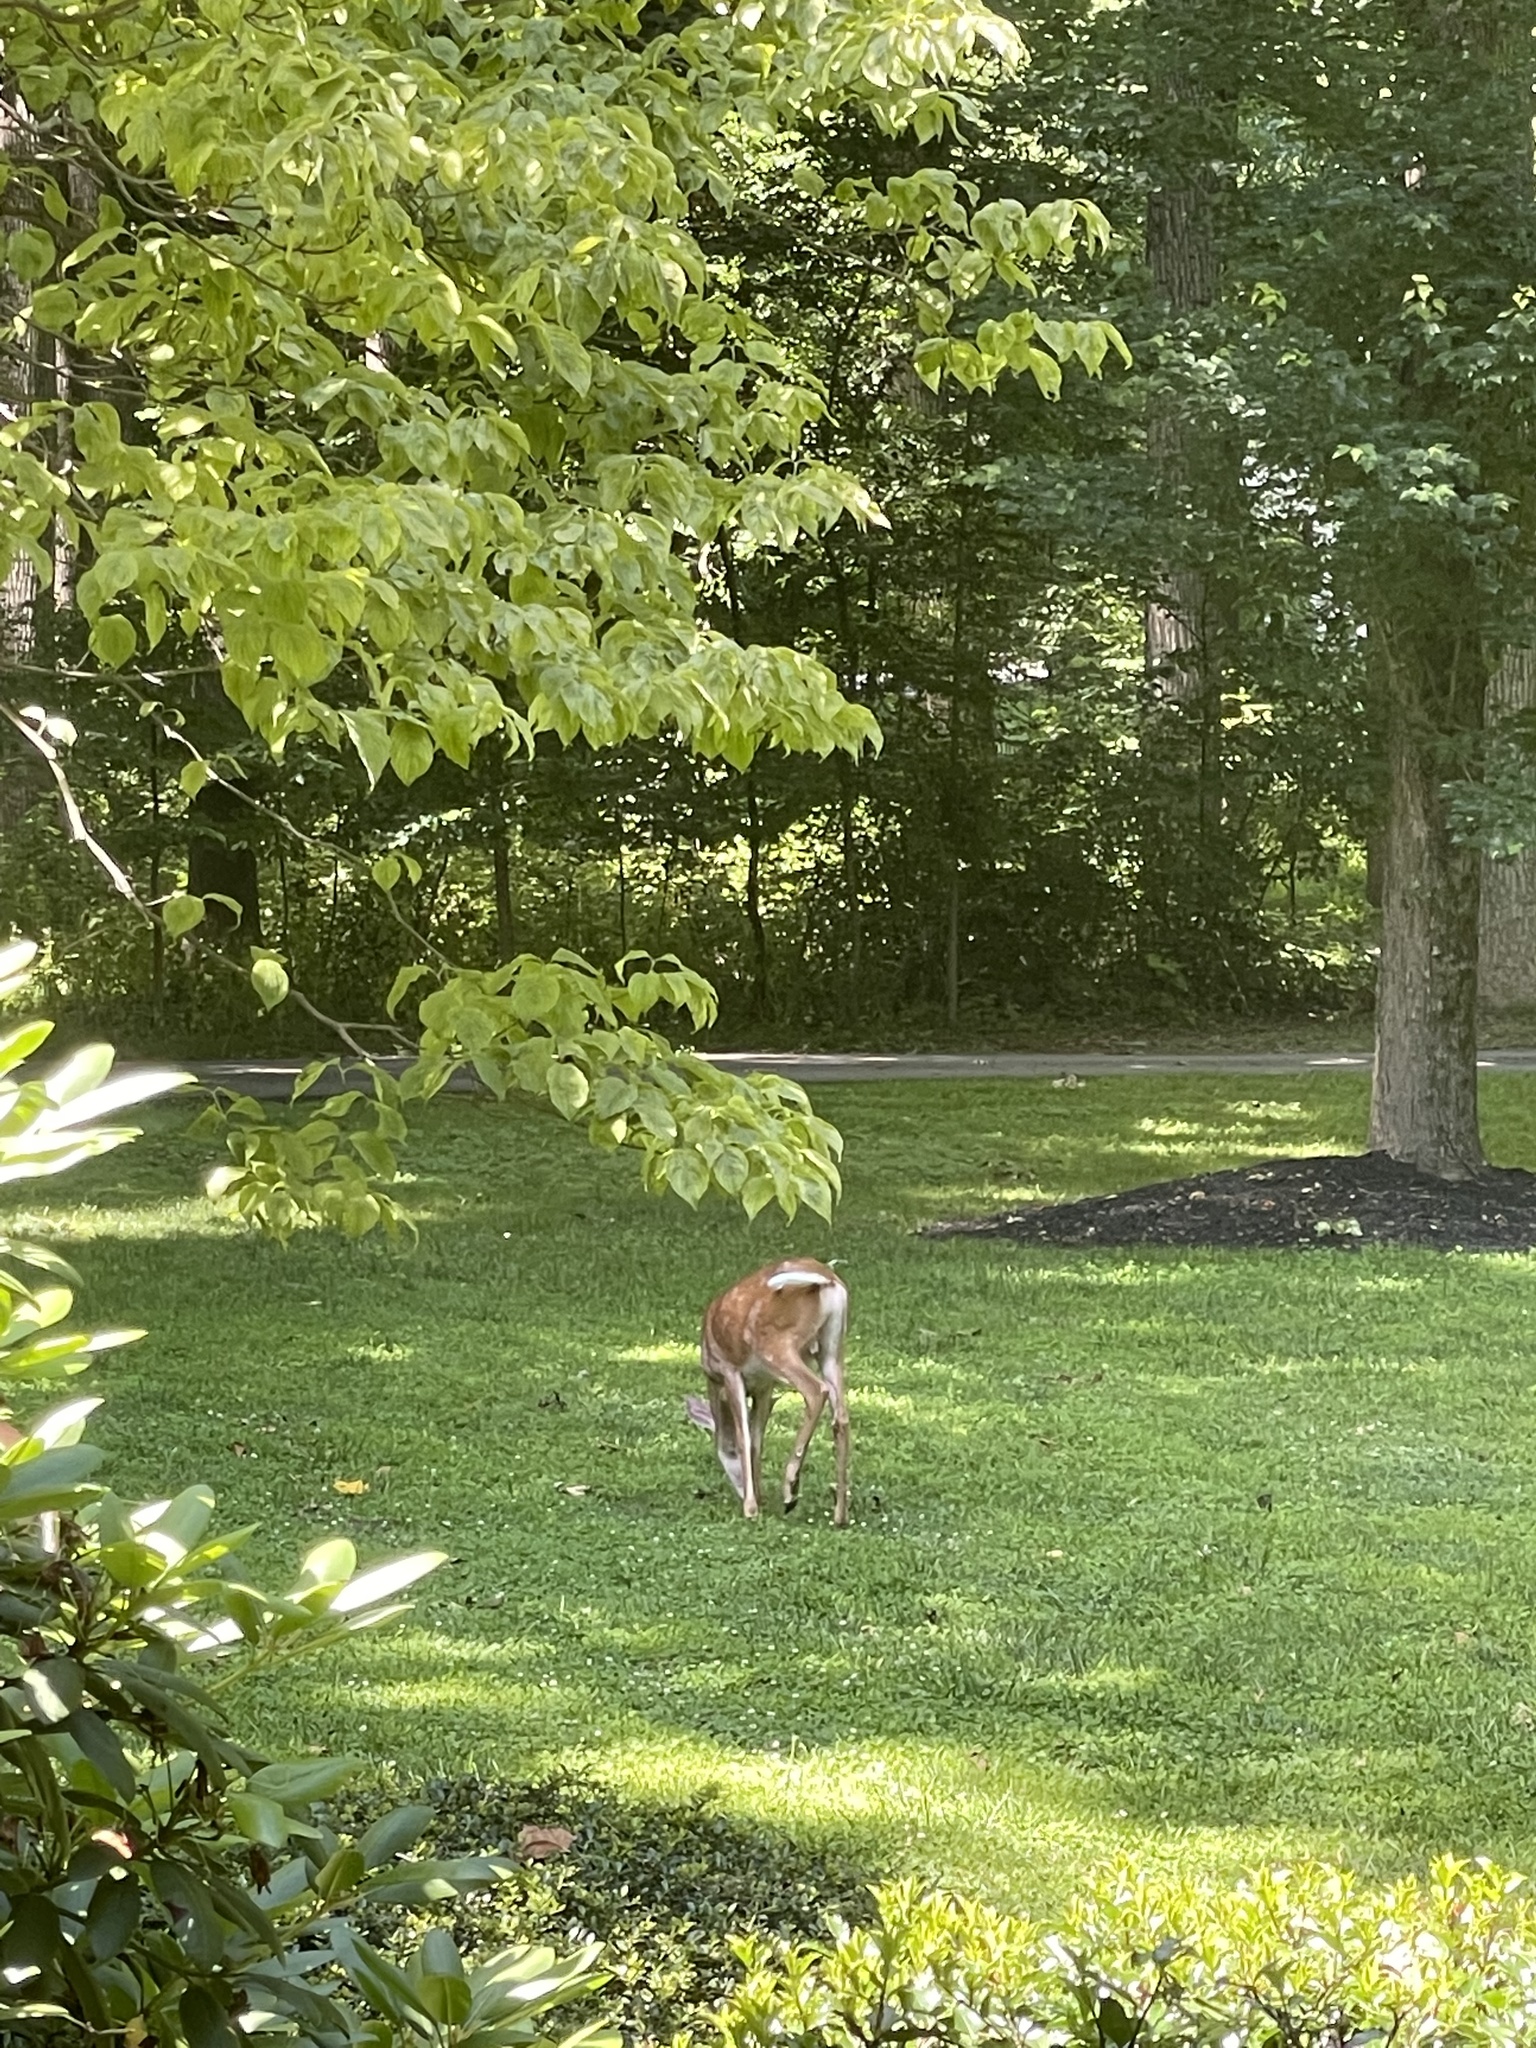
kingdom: Animalia
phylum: Chordata
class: Mammalia
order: Artiodactyla
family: Cervidae
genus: Odocoileus
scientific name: Odocoileus virginianus
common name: White-tailed deer
